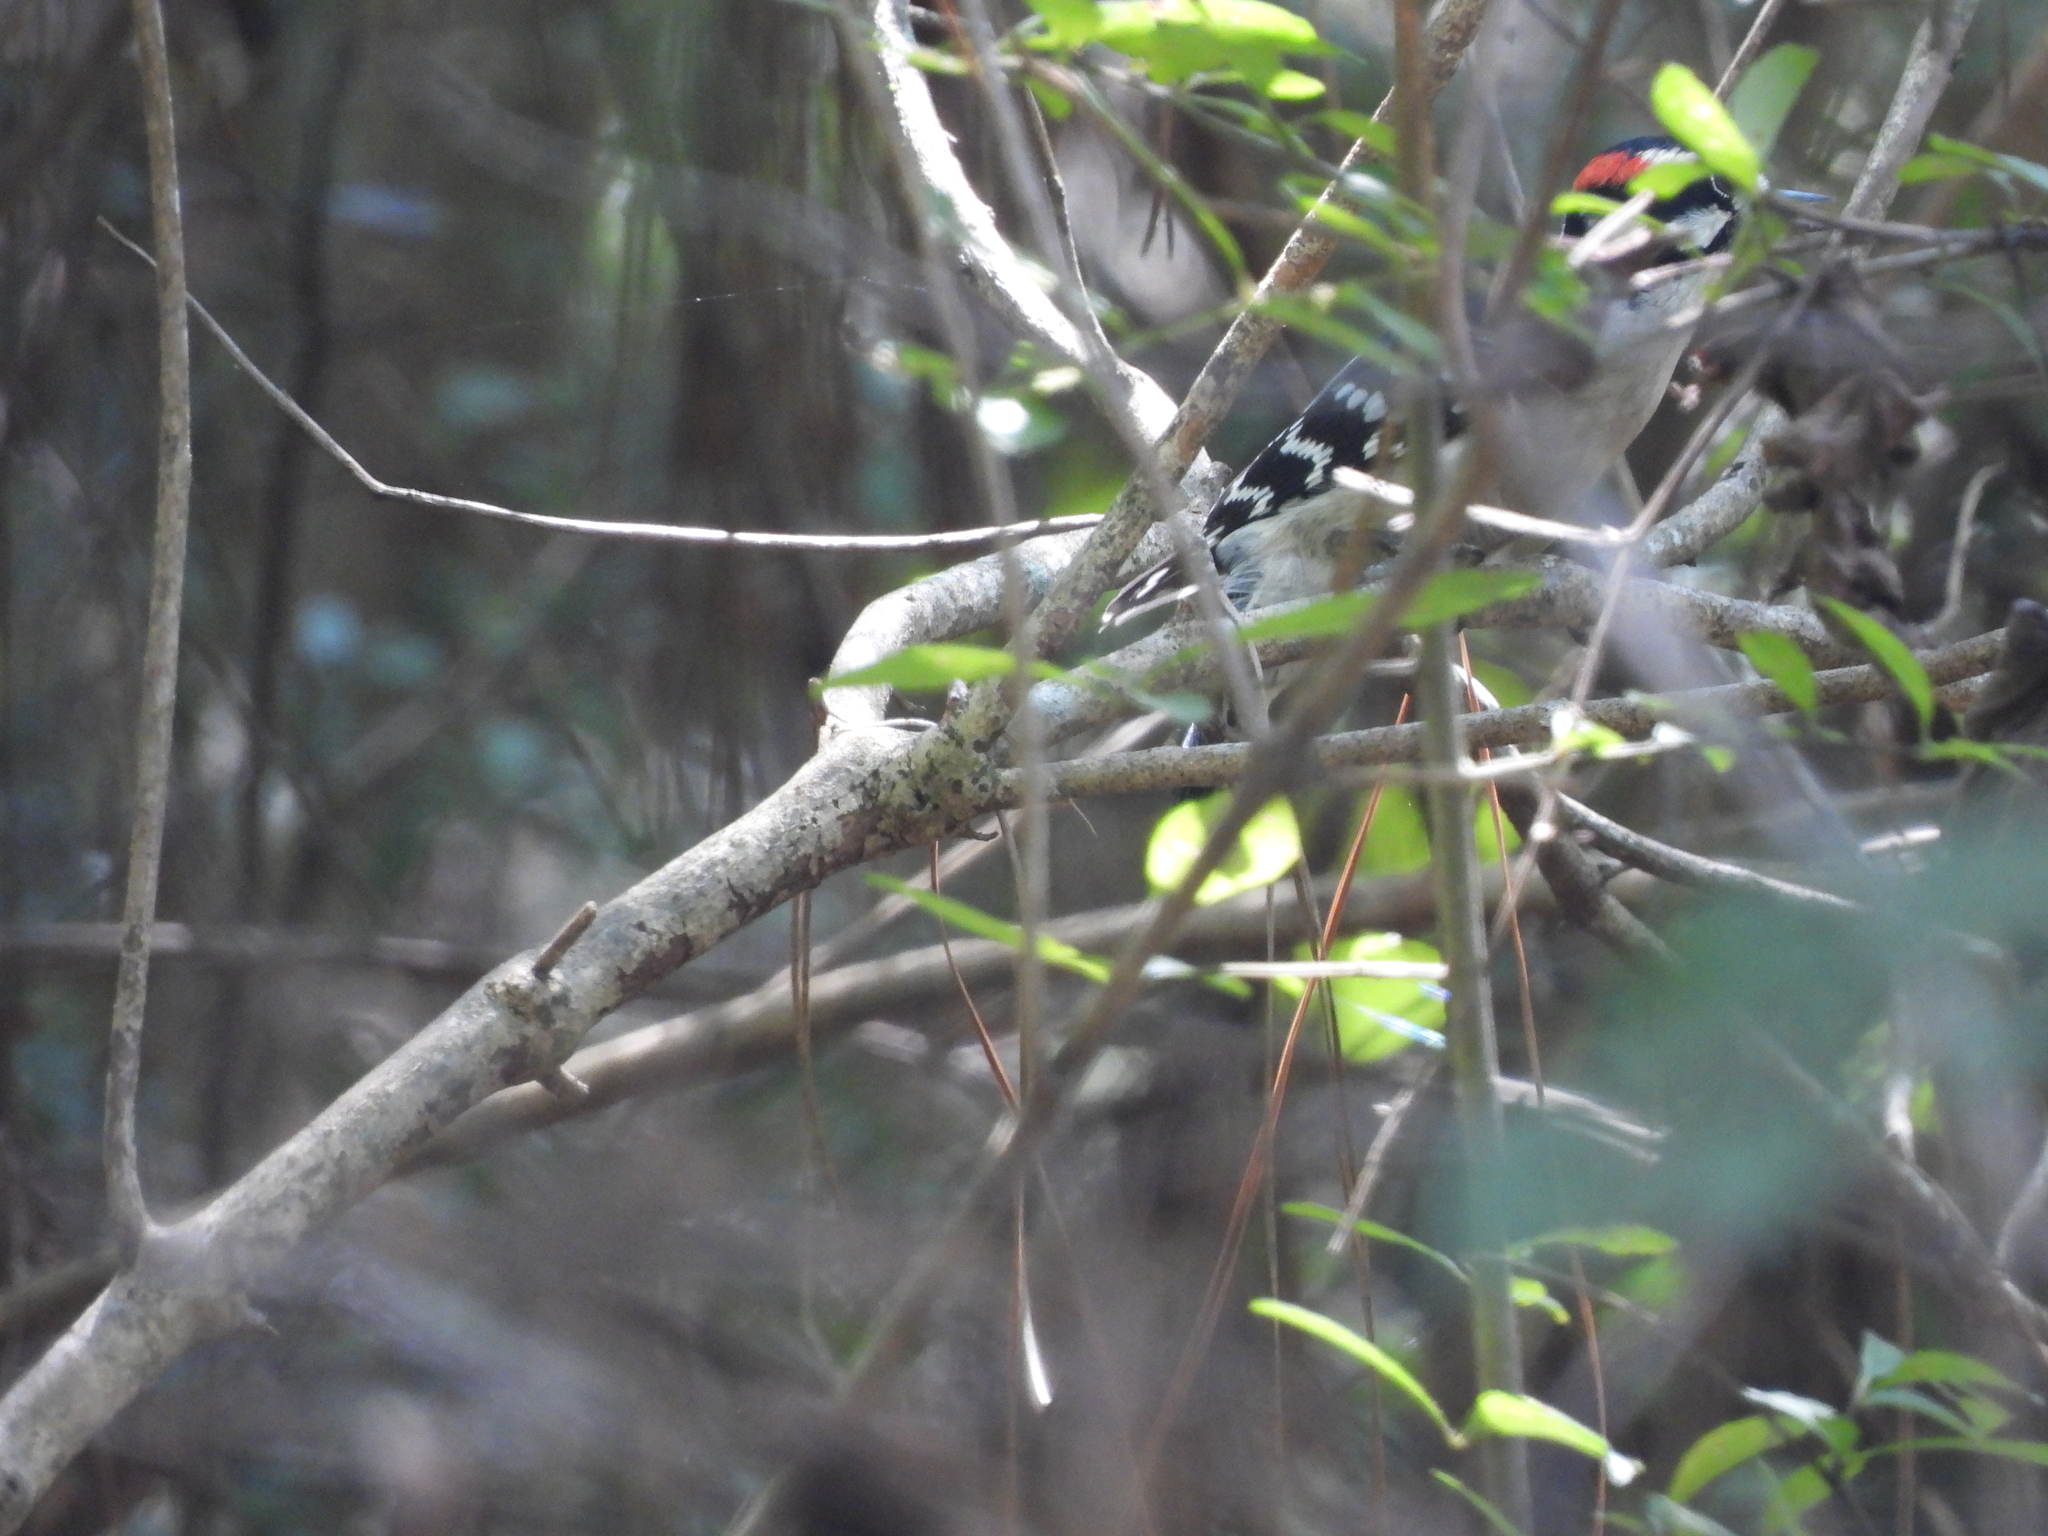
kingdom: Animalia
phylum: Chordata
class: Aves
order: Piciformes
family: Picidae
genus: Dryobates
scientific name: Dryobates pubescens
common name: Downy woodpecker
